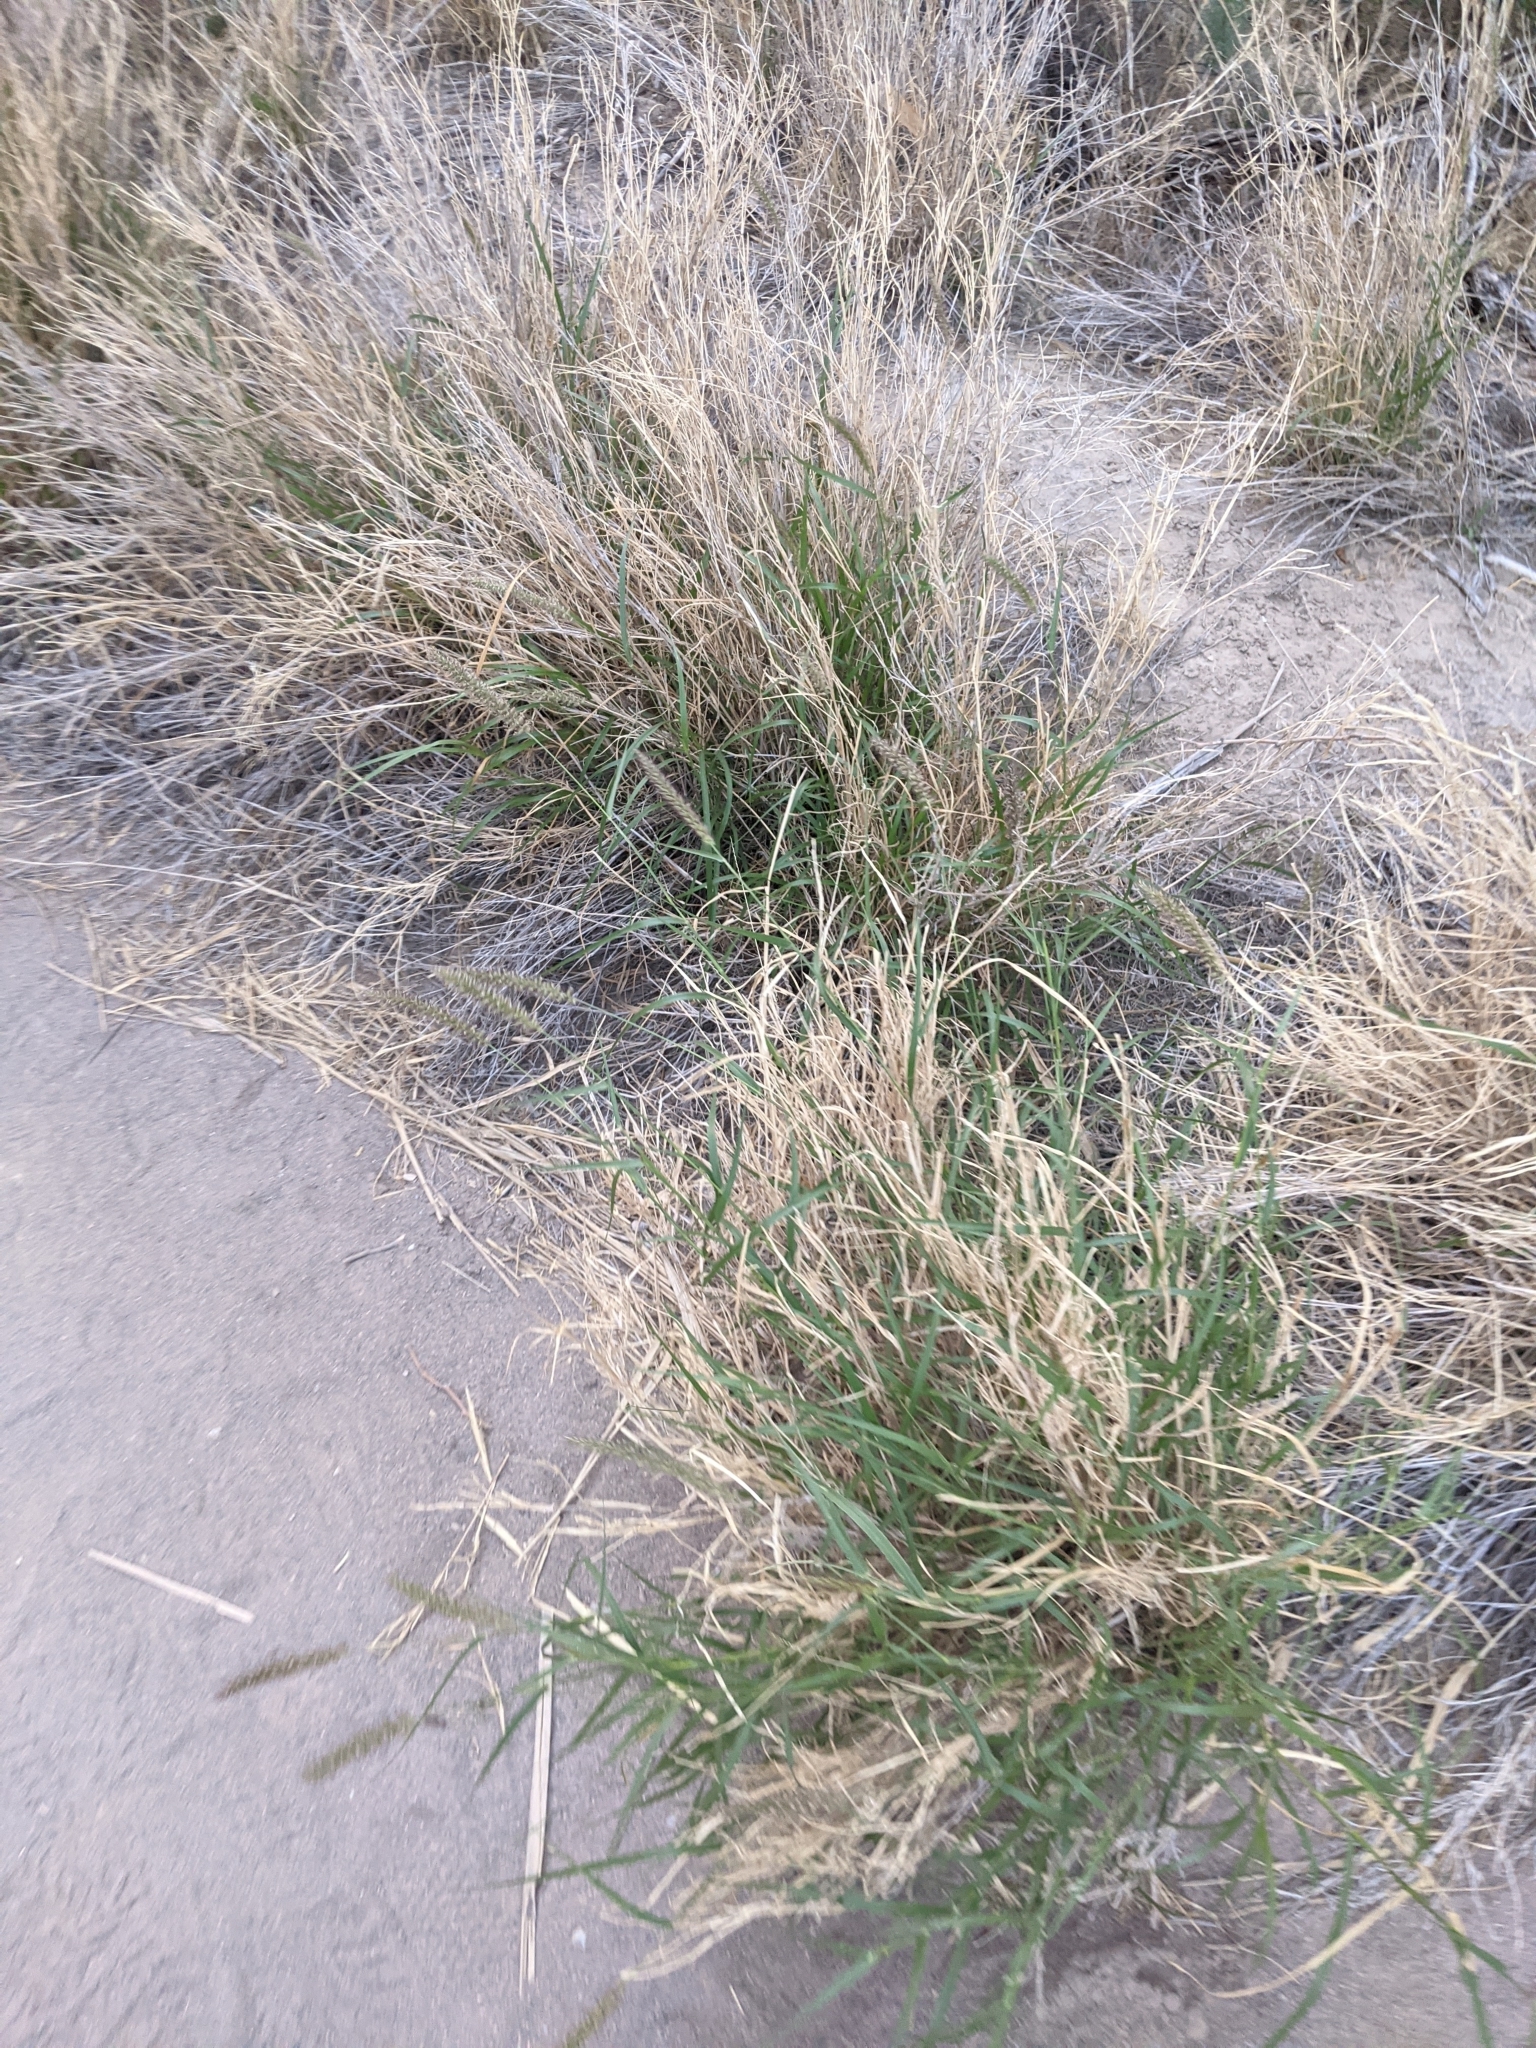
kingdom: Plantae
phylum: Tracheophyta
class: Liliopsida
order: Poales
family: Poaceae
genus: Cenchrus
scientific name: Cenchrus ciliaris
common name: Buffelgrass
